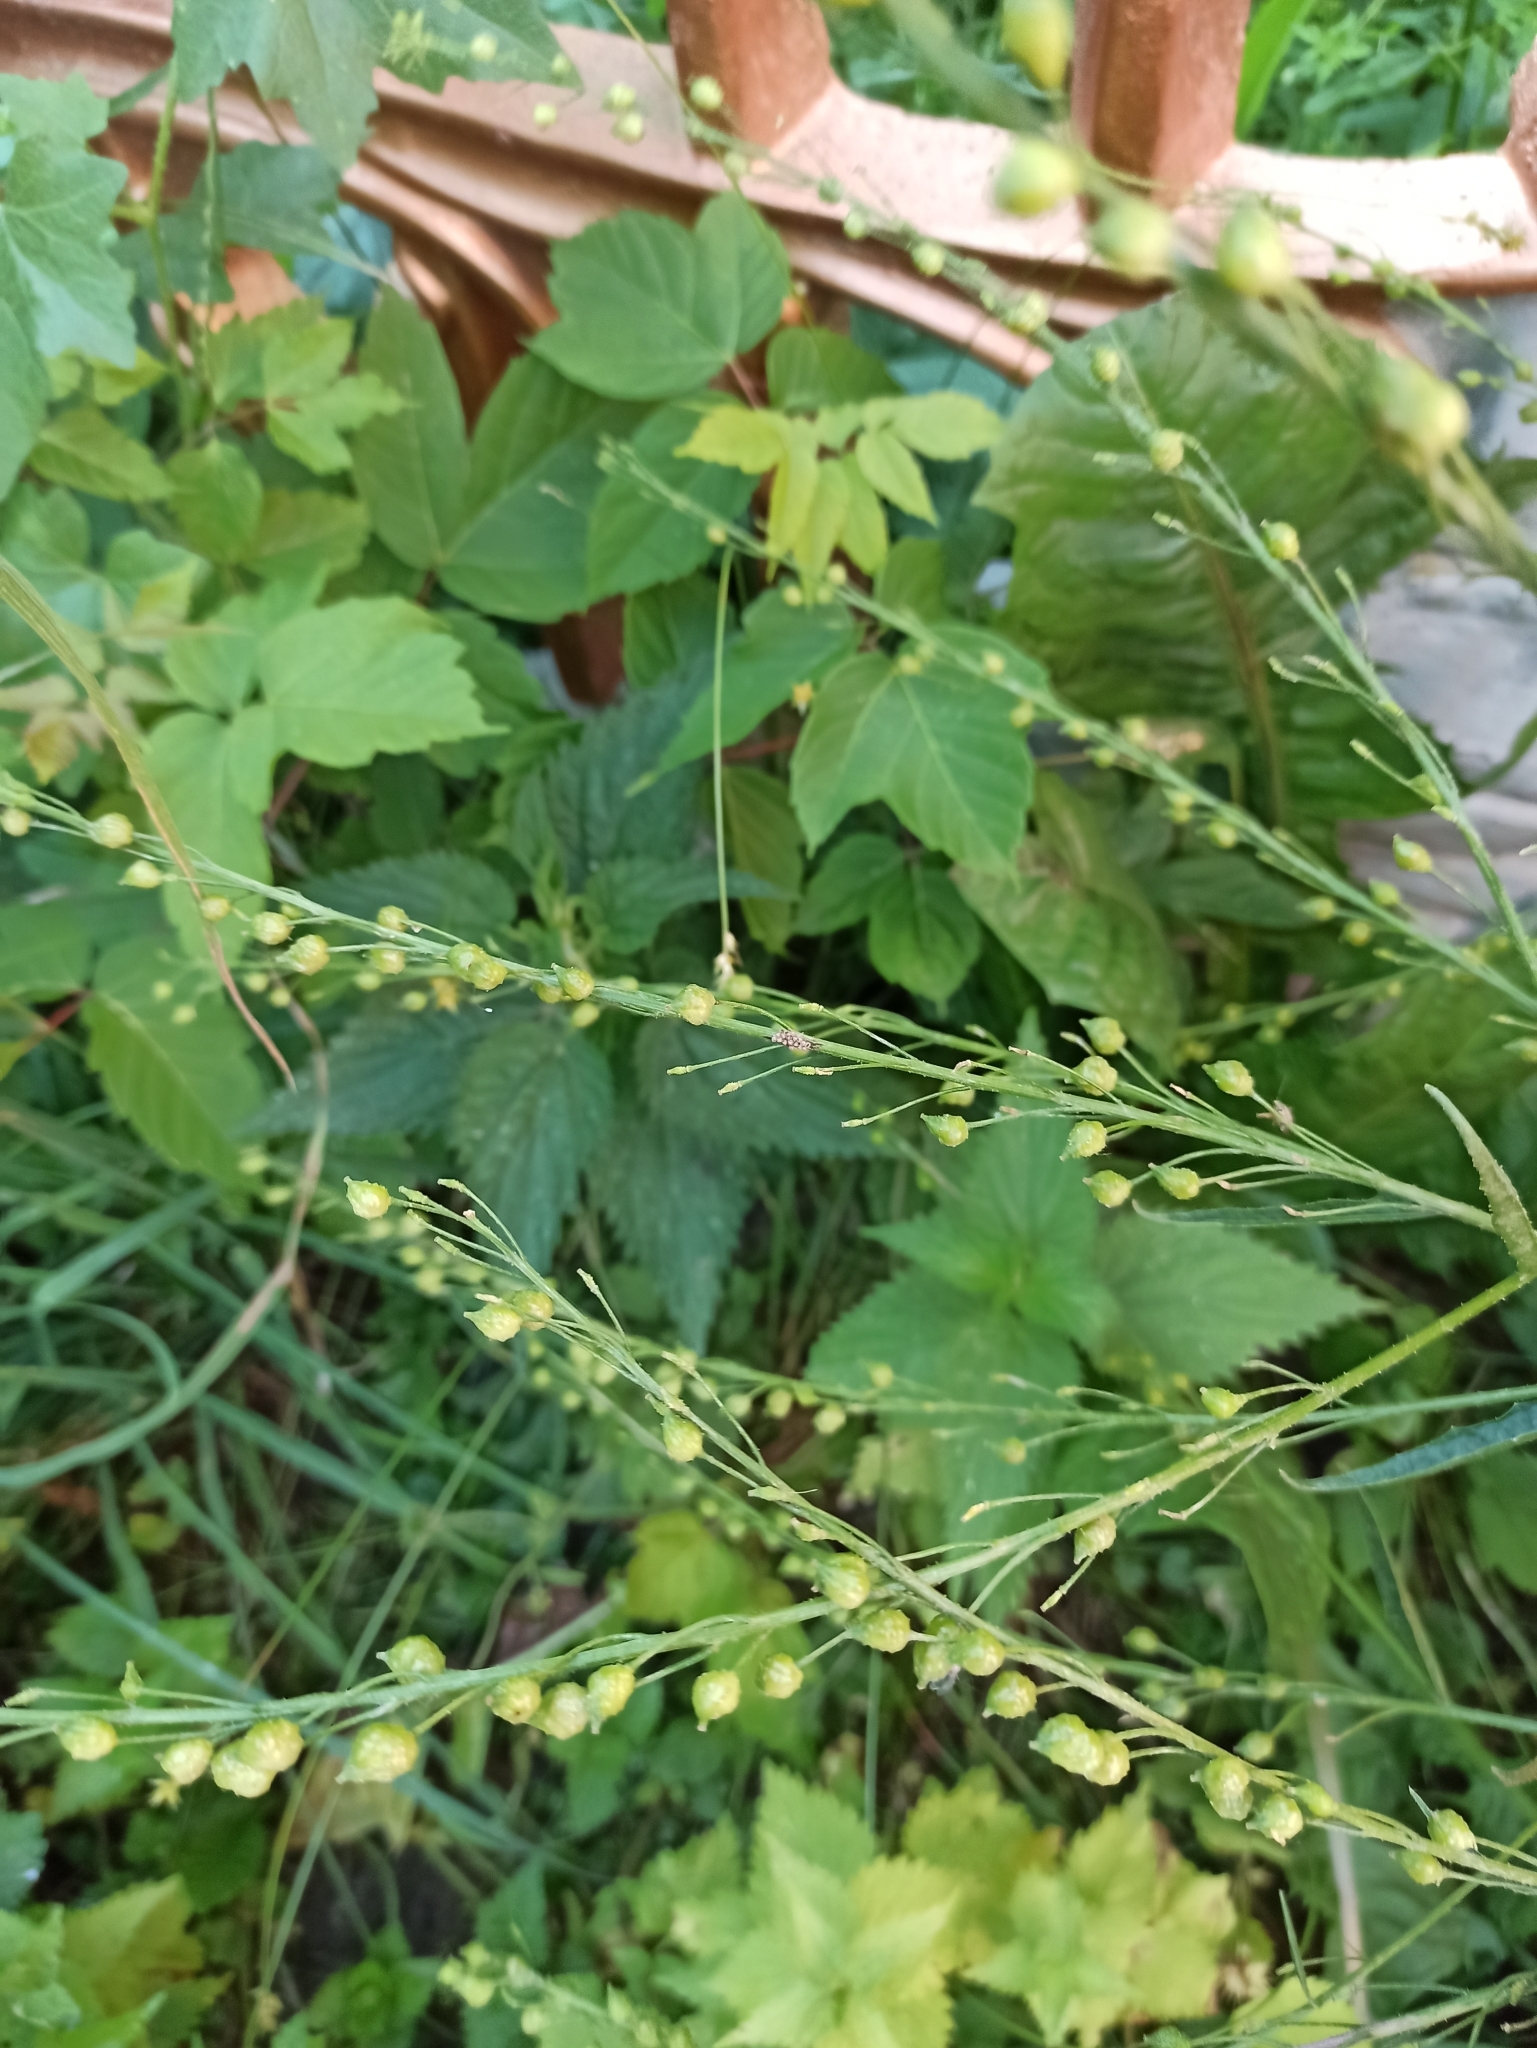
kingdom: Plantae
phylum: Tracheophyta
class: Magnoliopsida
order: Brassicales
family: Brassicaceae
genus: Bunias
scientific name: Bunias orientalis
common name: Warty-cabbage
